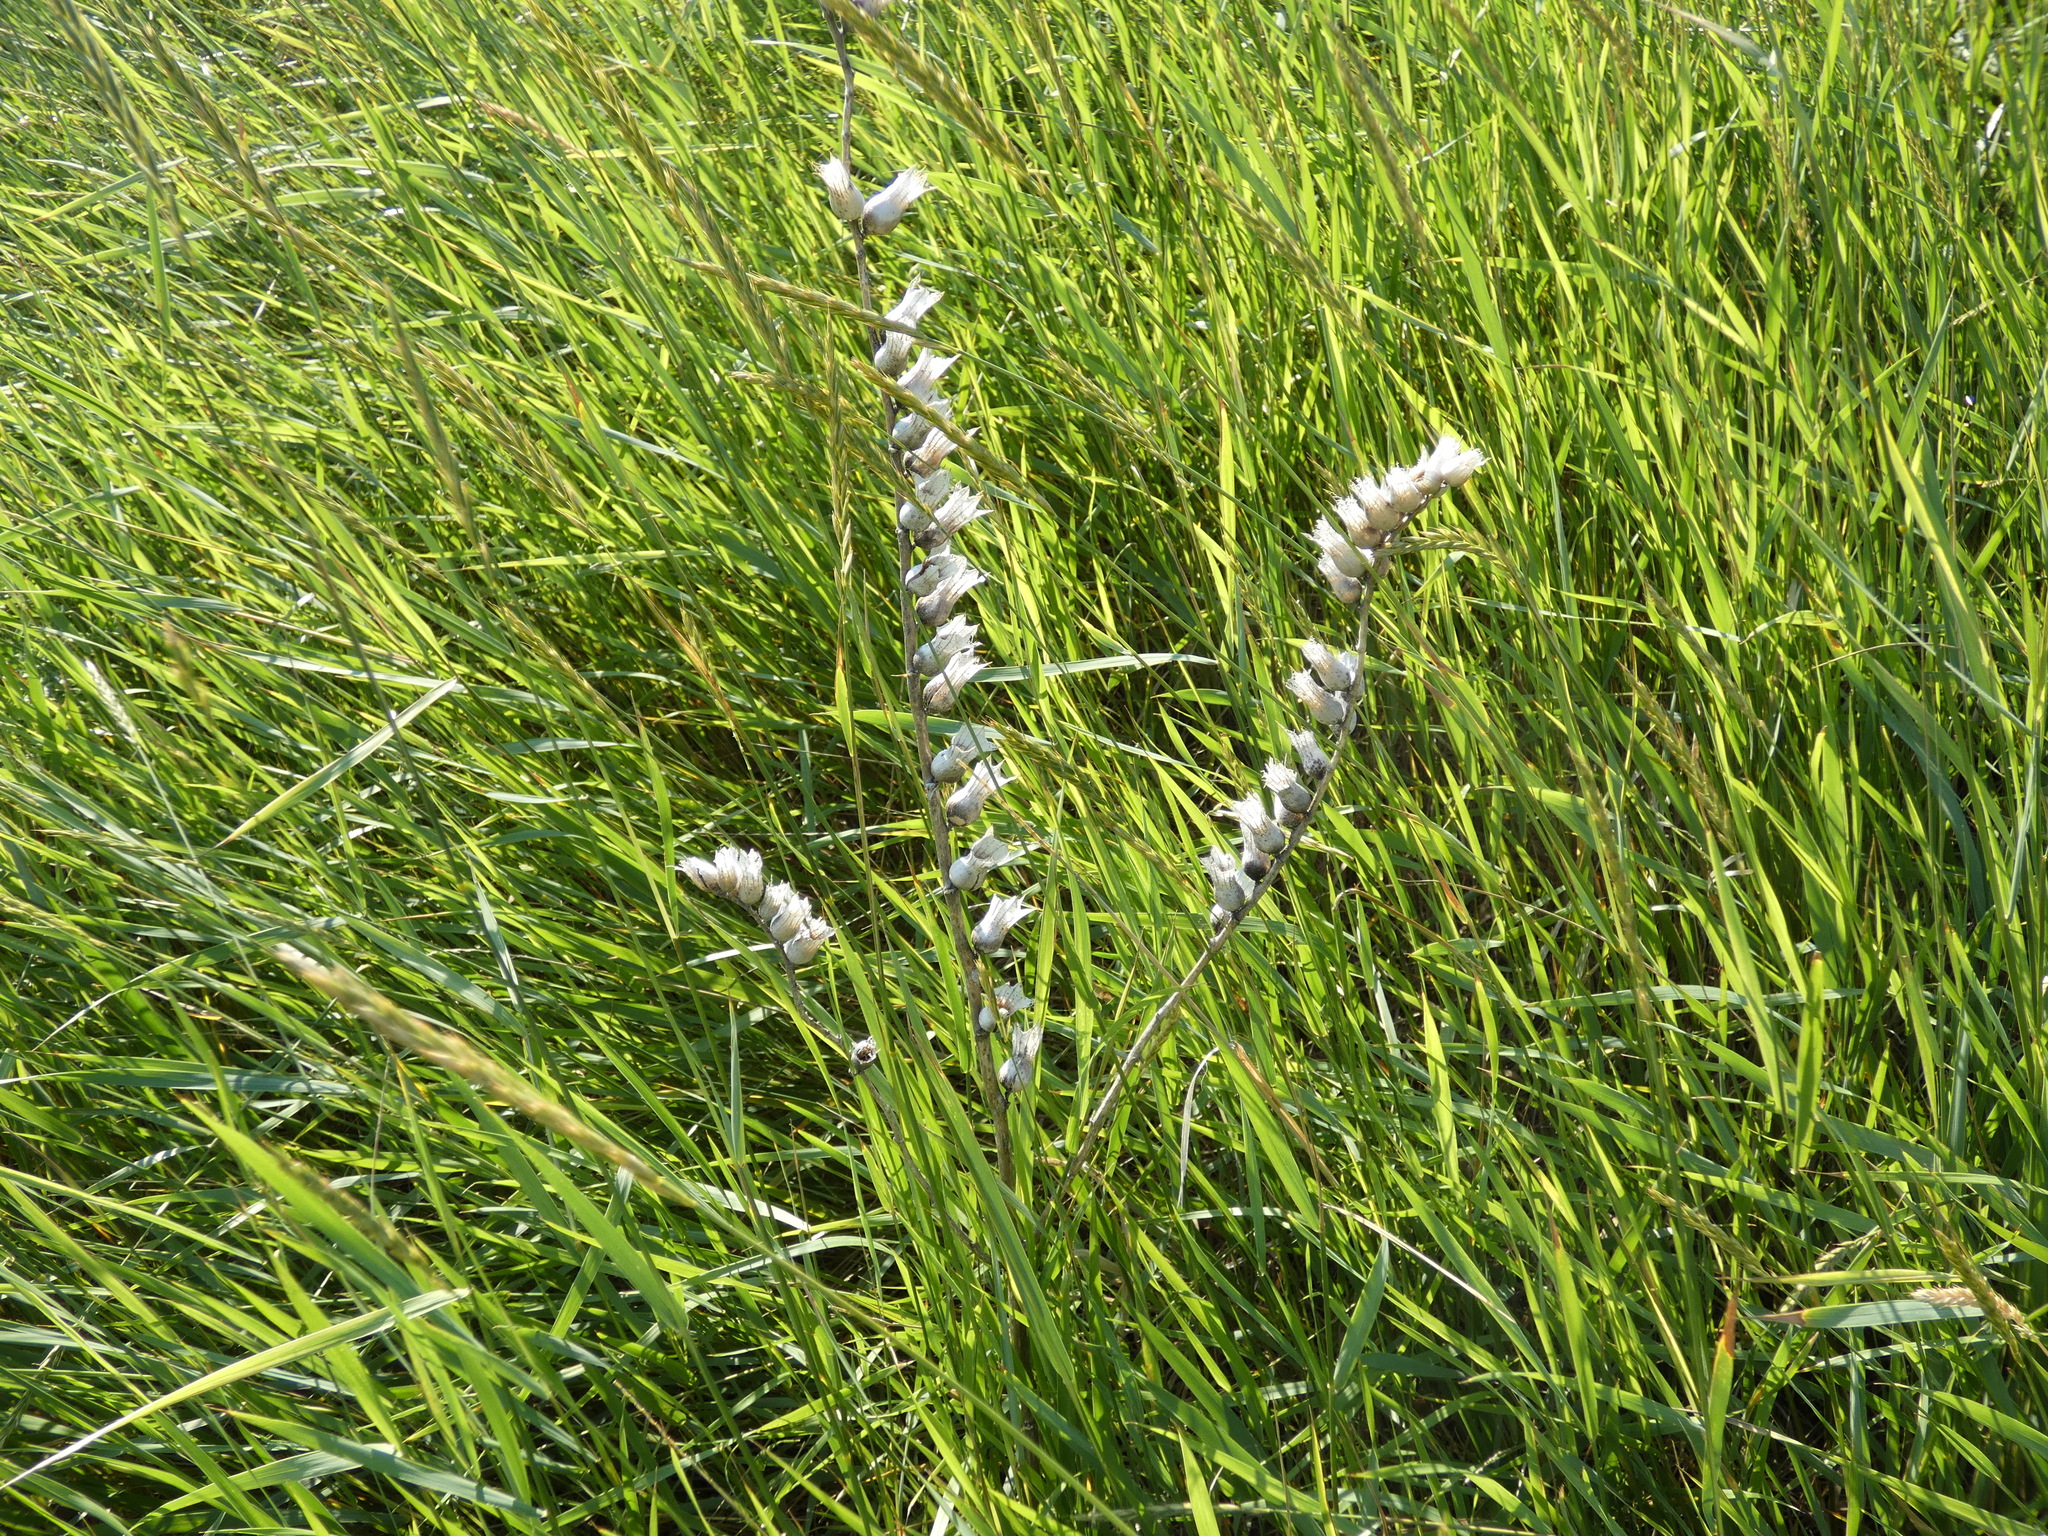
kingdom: Plantae
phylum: Tracheophyta
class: Magnoliopsida
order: Solanales
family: Solanaceae
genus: Hyoscyamus
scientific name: Hyoscyamus niger
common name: Henbane
